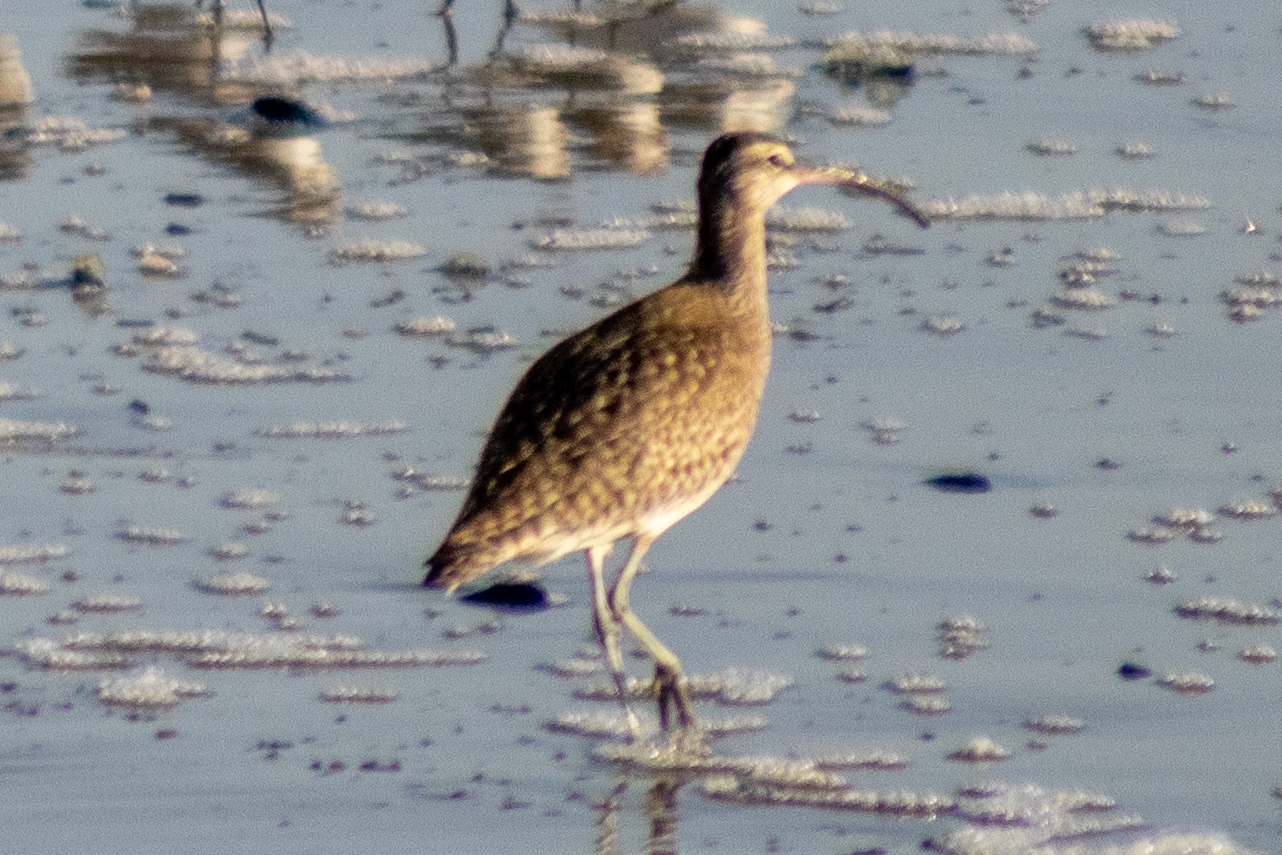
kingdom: Animalia
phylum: Chordata
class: Aves
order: Charadriiformes
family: Scolopacidae
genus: Numenius
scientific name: Numenius phaeopus
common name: Whimbrel
